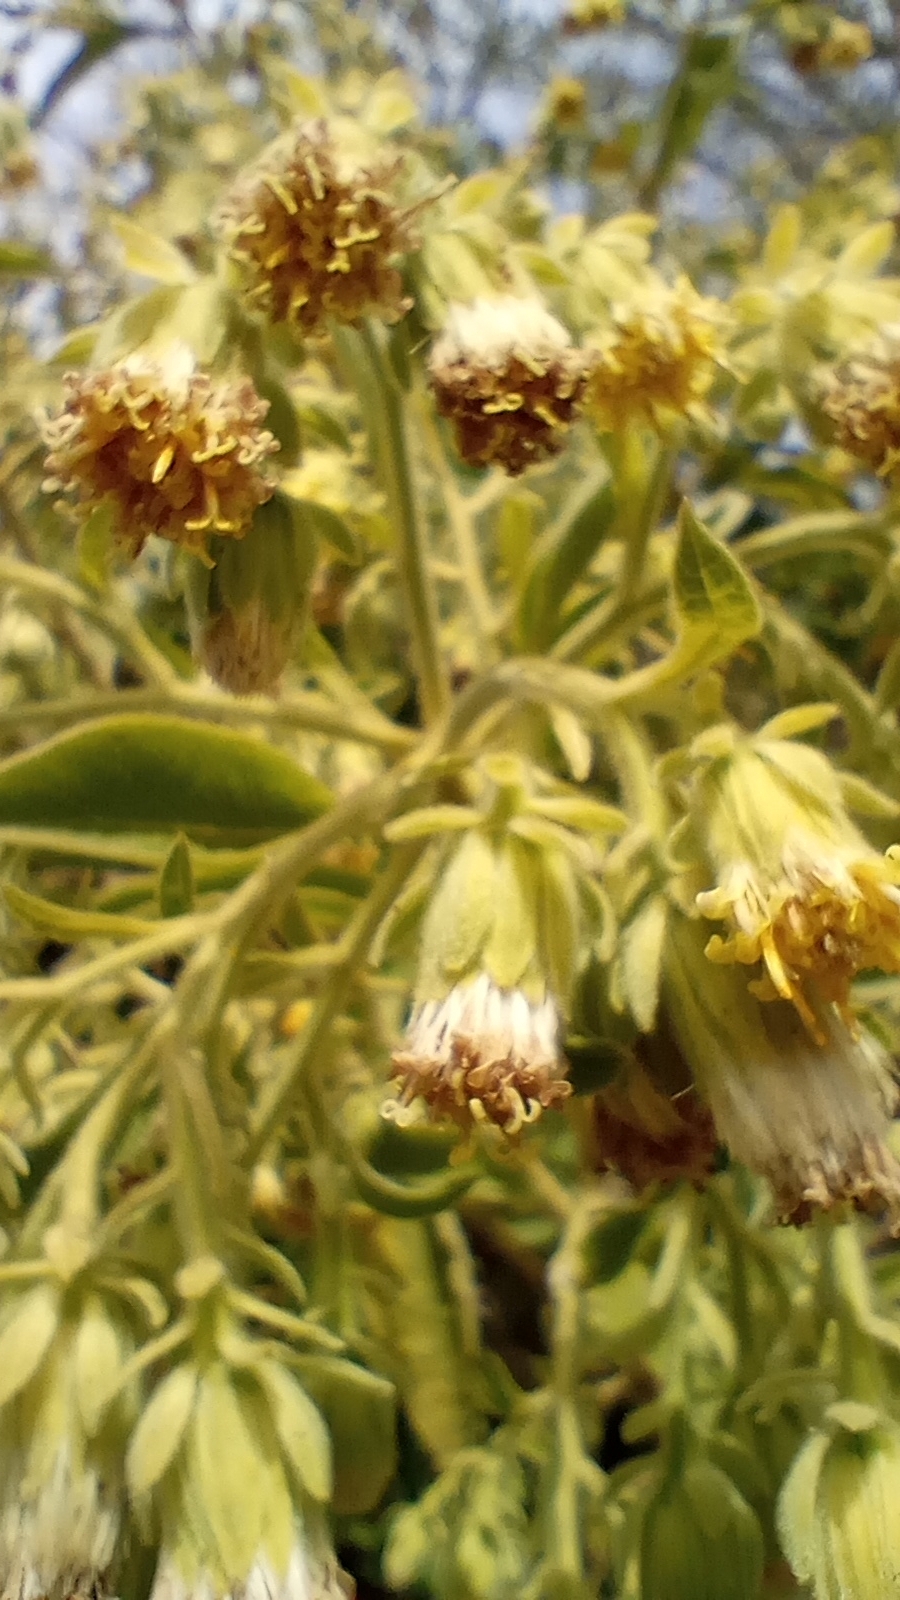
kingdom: Plantae
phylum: Tracheophyta
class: Magnoliopsida
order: Asterales
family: Asteraceae
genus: Trixis
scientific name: Trixis praestans
